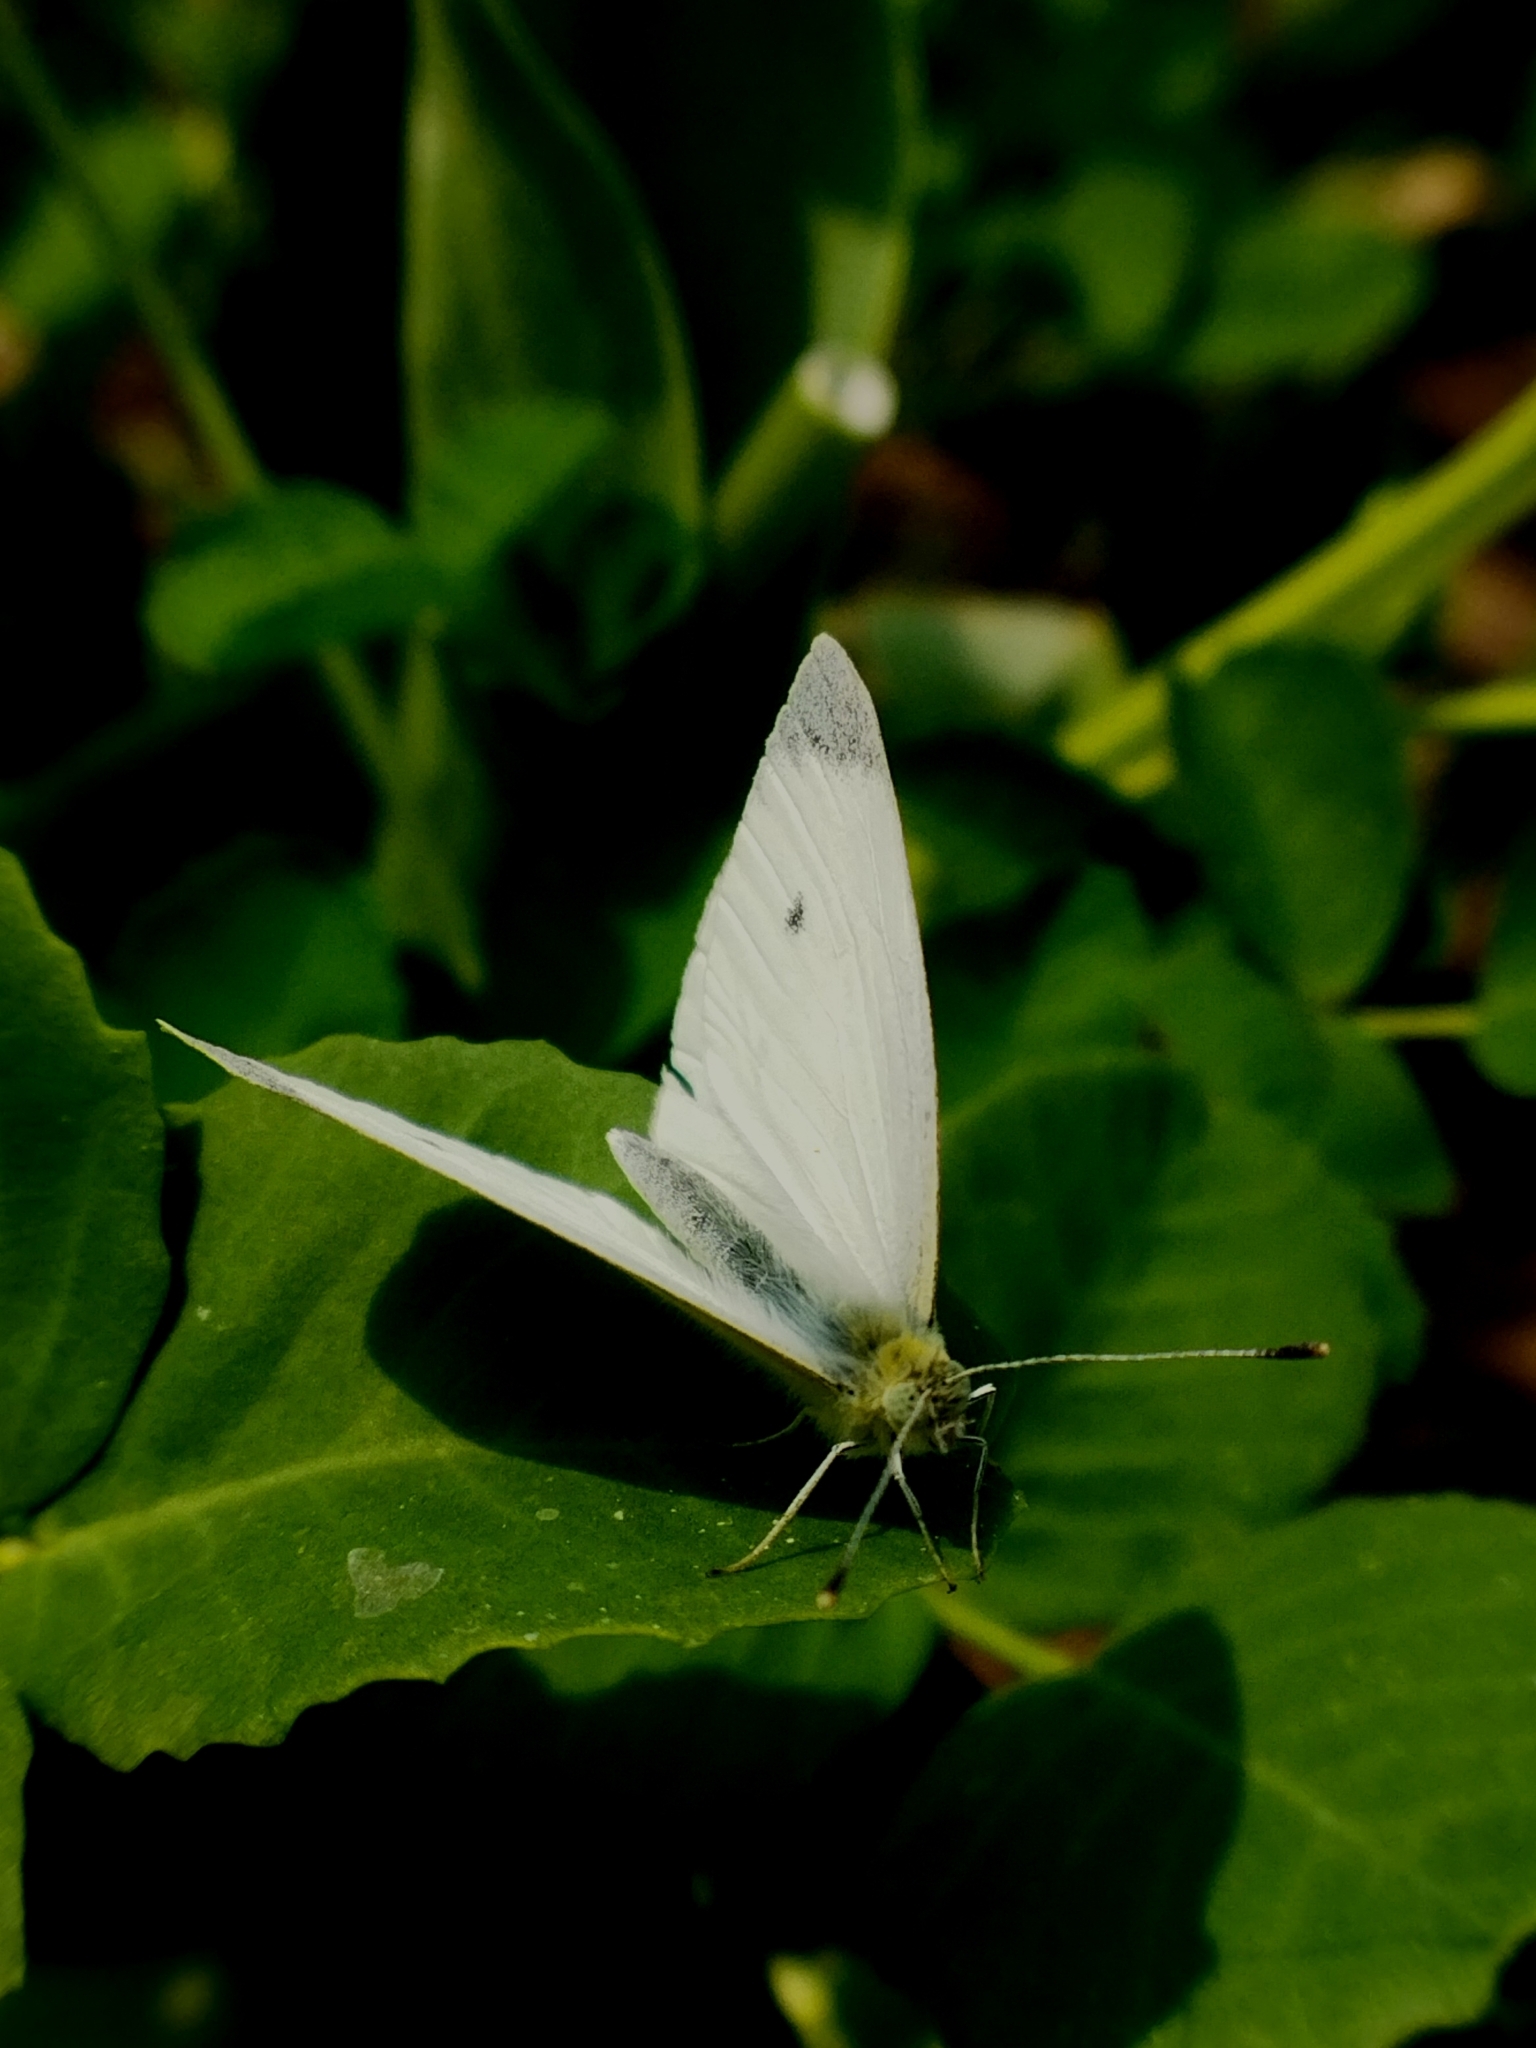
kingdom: Animalia
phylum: Arthropoda
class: Insecta
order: Lepidoptera
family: Pieridae
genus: Pieris
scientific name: Pieris rapae
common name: Small white
